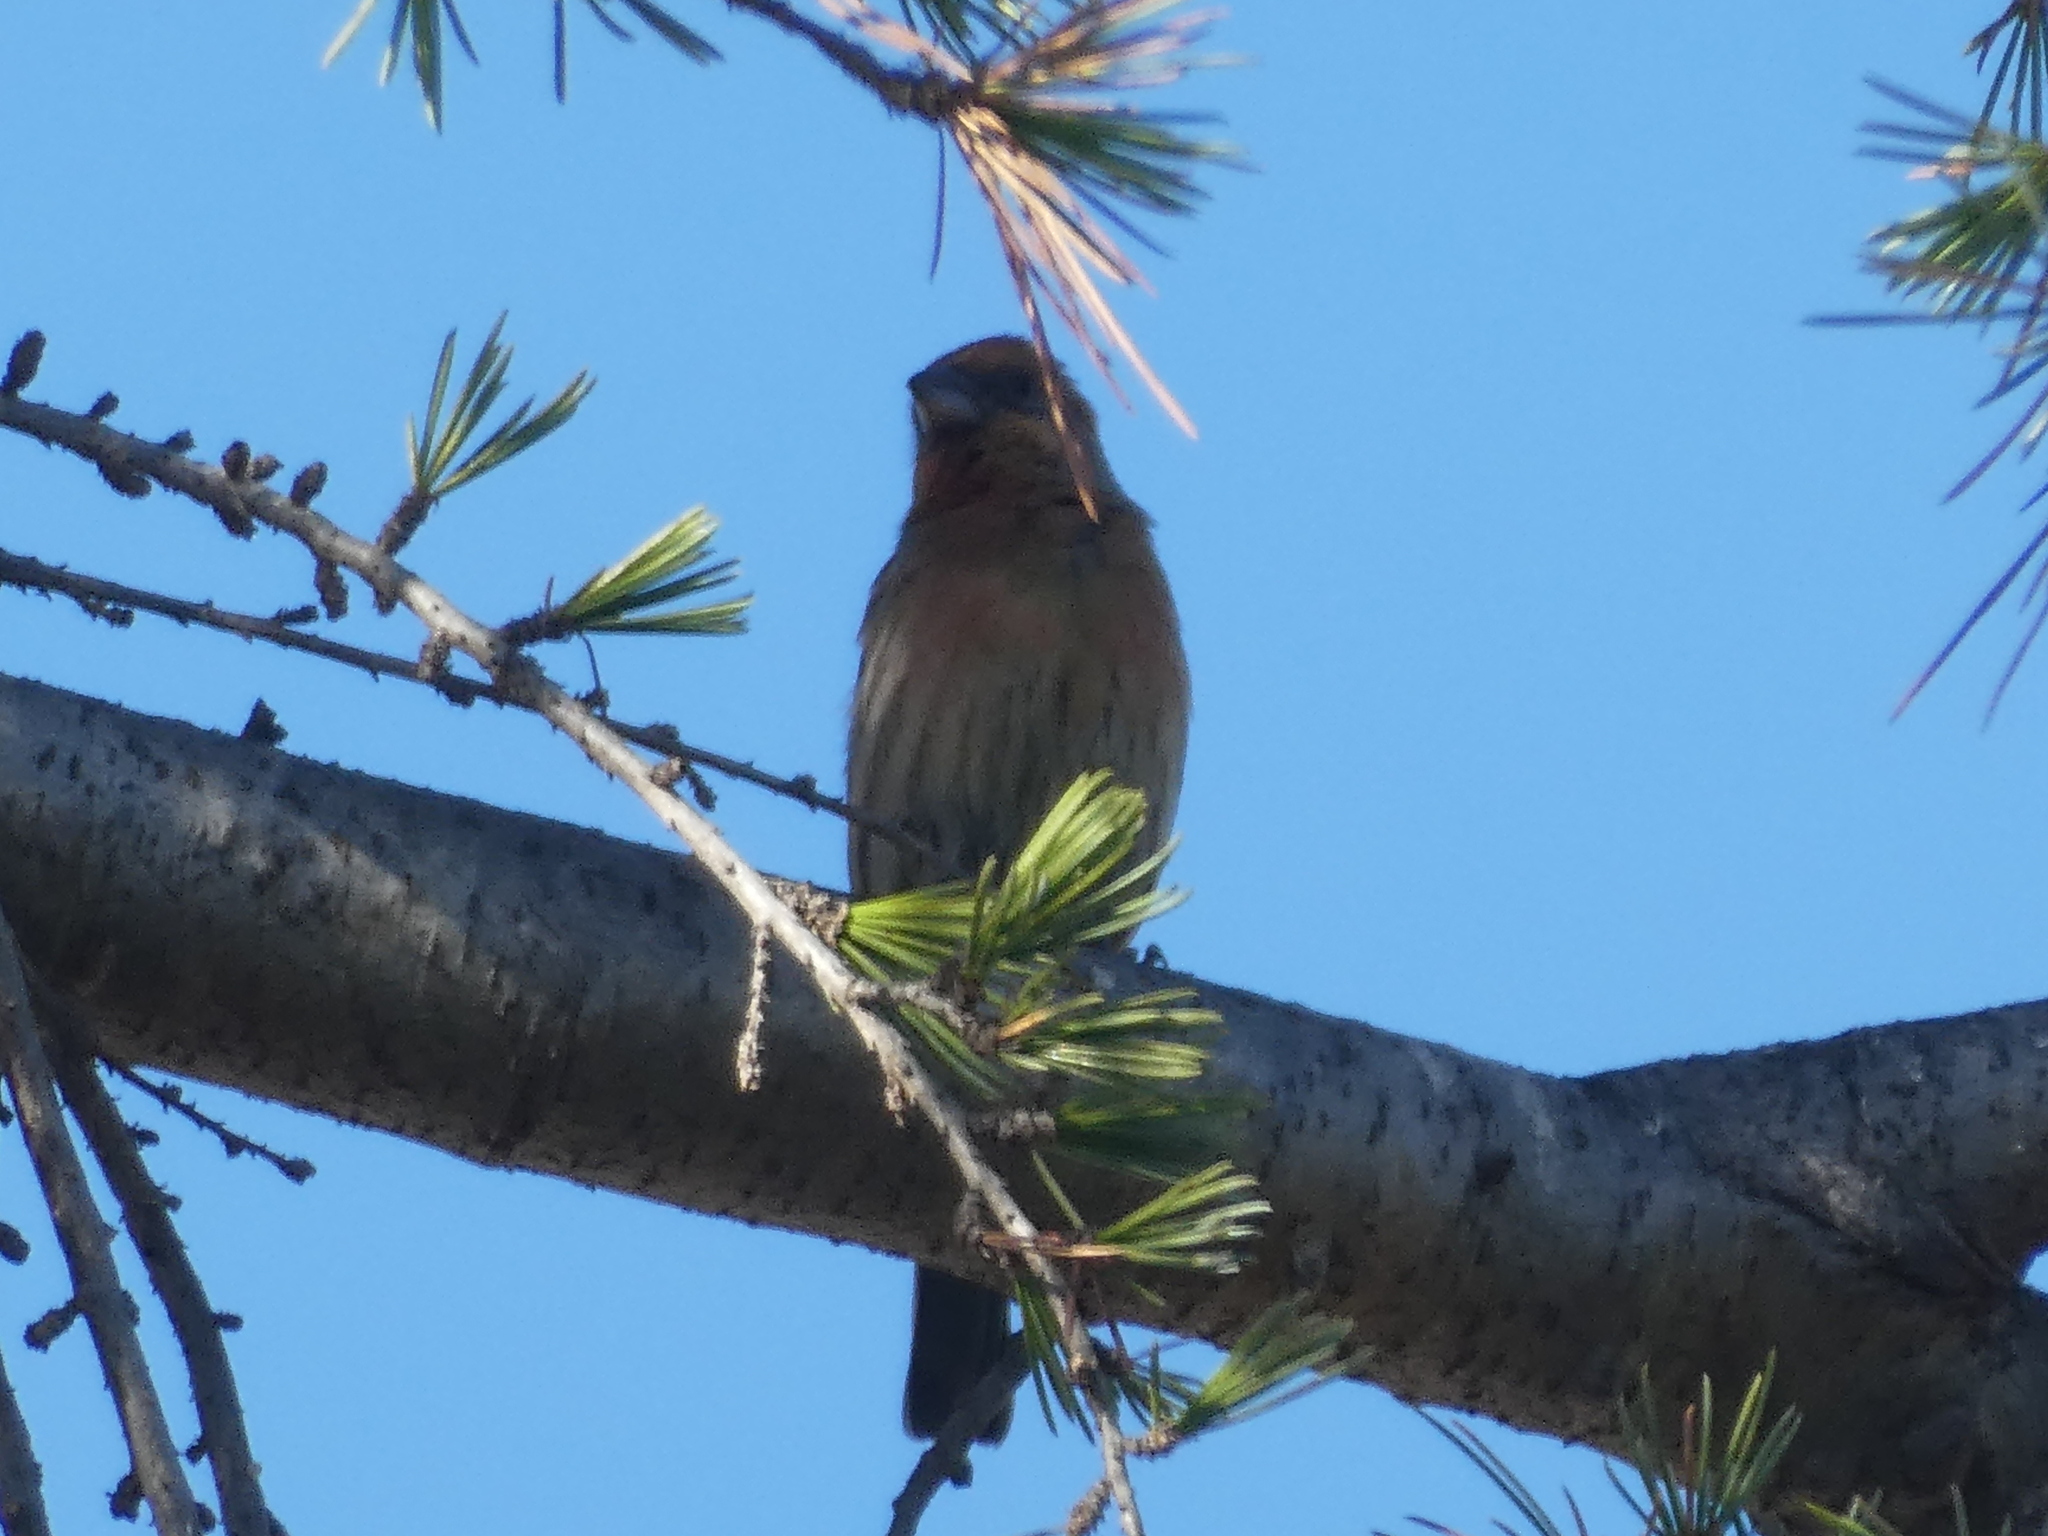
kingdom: Animalia
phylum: Chordata
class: Aves
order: Passeriformes
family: Fringillidae
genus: Haemorhous
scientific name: Haemorhous mexicanus
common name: House finch
